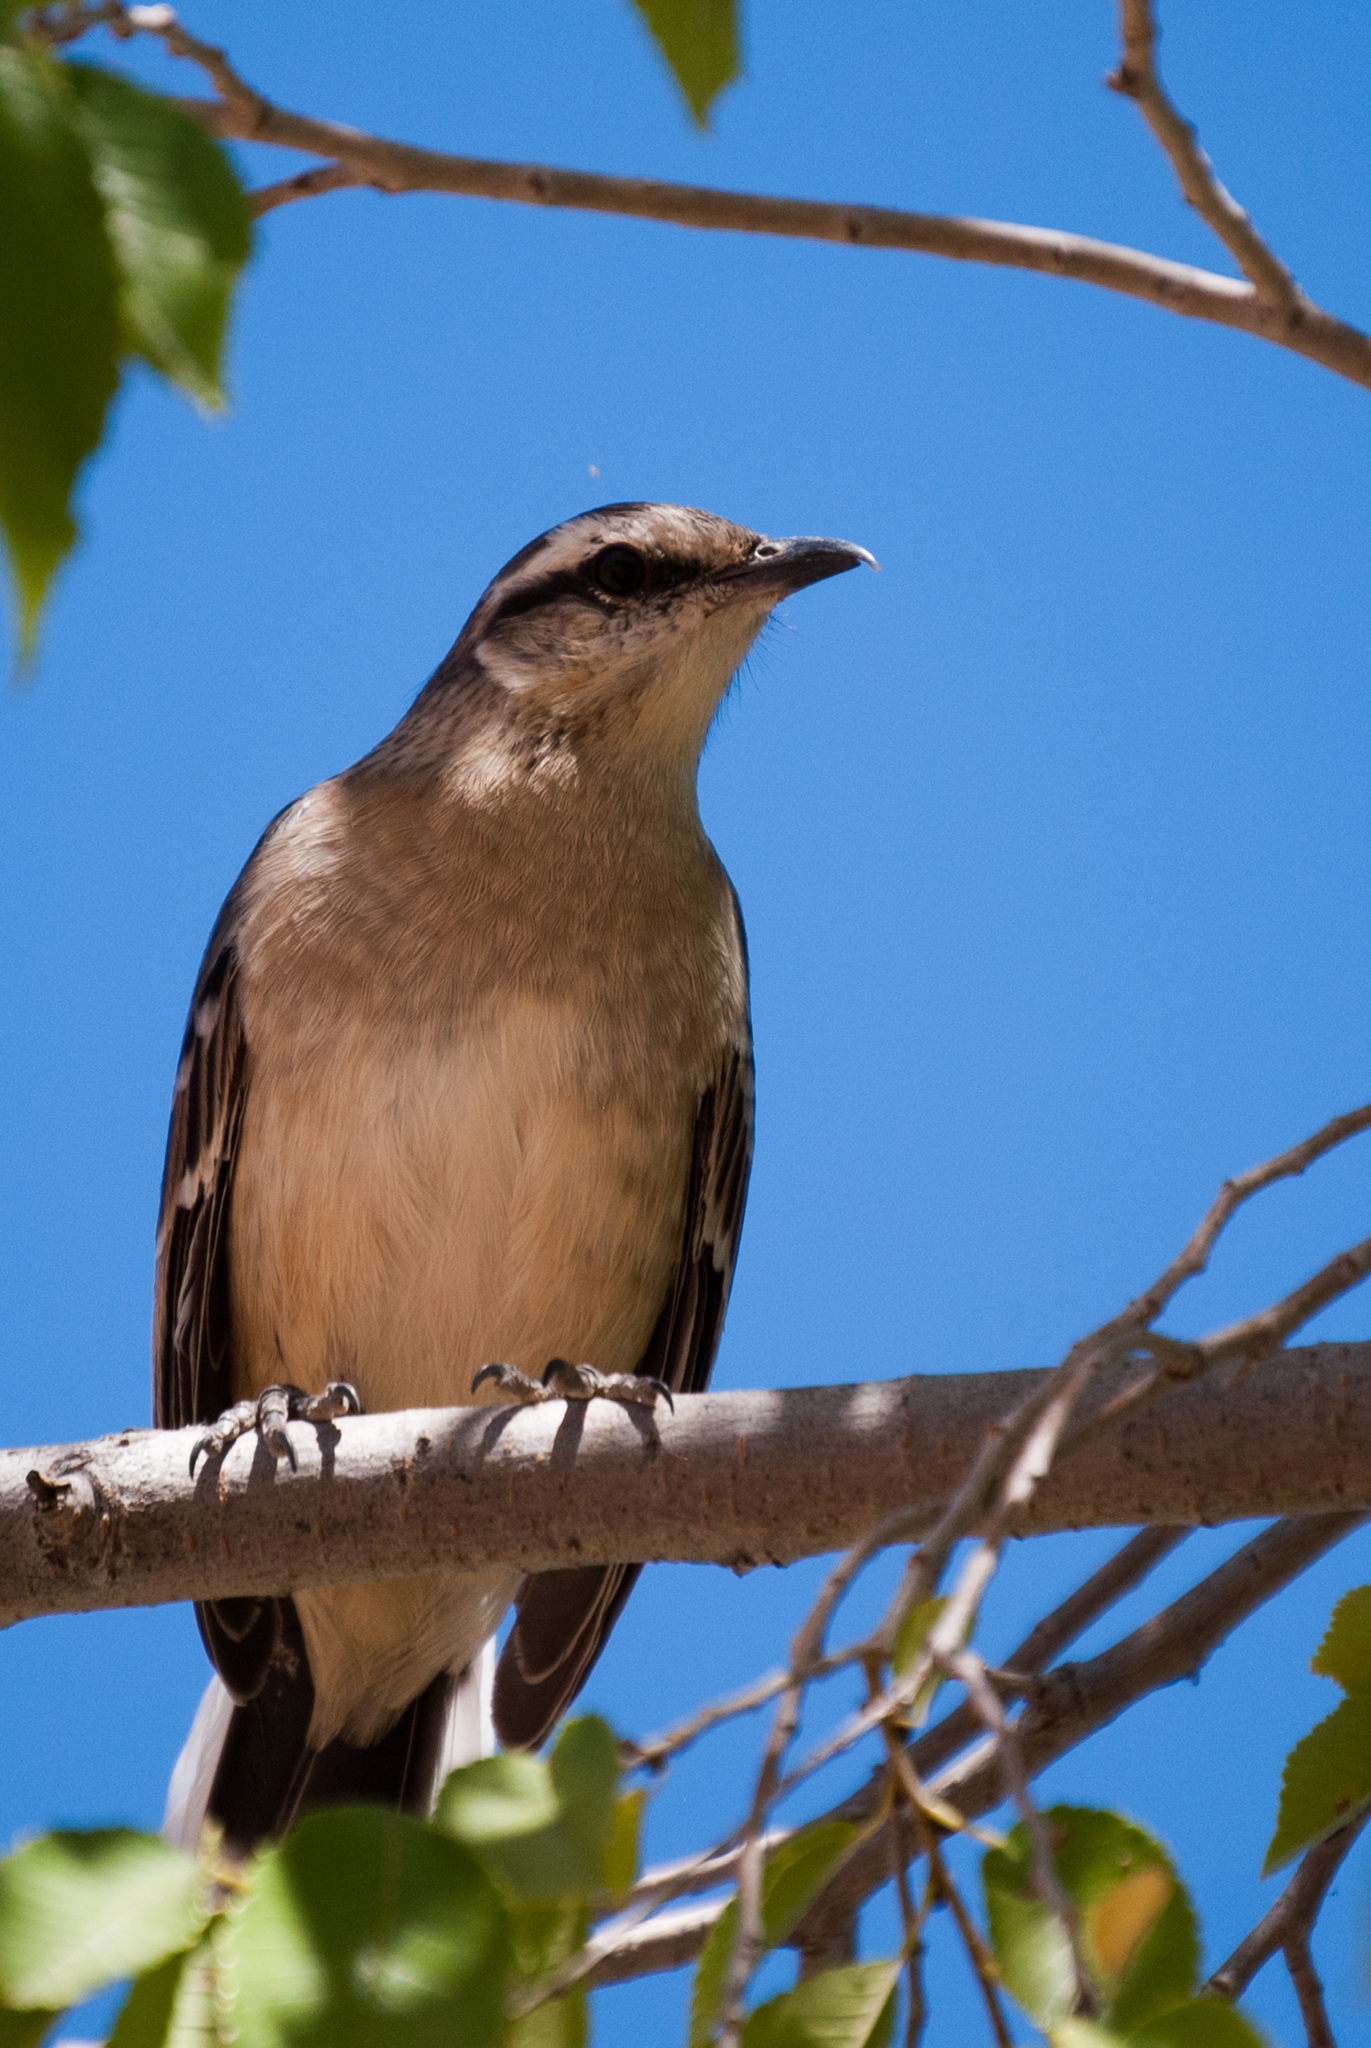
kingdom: Animalia
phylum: Chordata
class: Aves
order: Passeriformes
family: Mimidae
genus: Mimus
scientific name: Mimus saturninus
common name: Chalk-browed mockingbird
